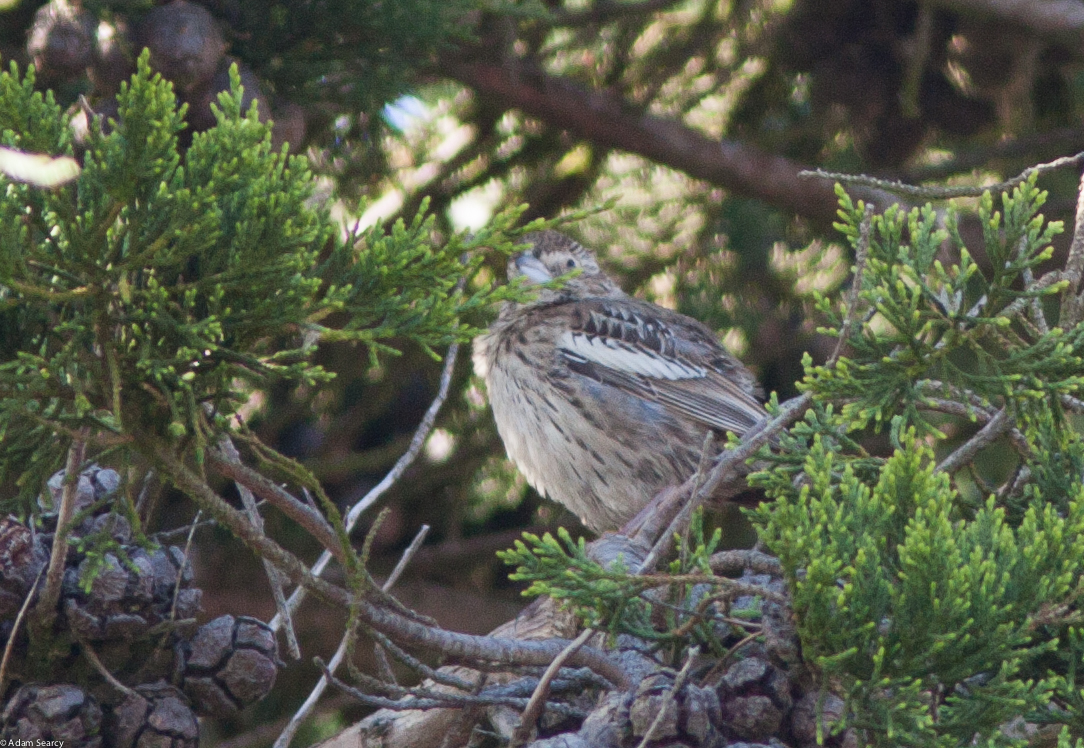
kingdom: Animalia
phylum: Chordata
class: Aves
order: Passeriformes
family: Passerellidae
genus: Calamospiza
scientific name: Calamospiza melanocorys
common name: Lark bunting
